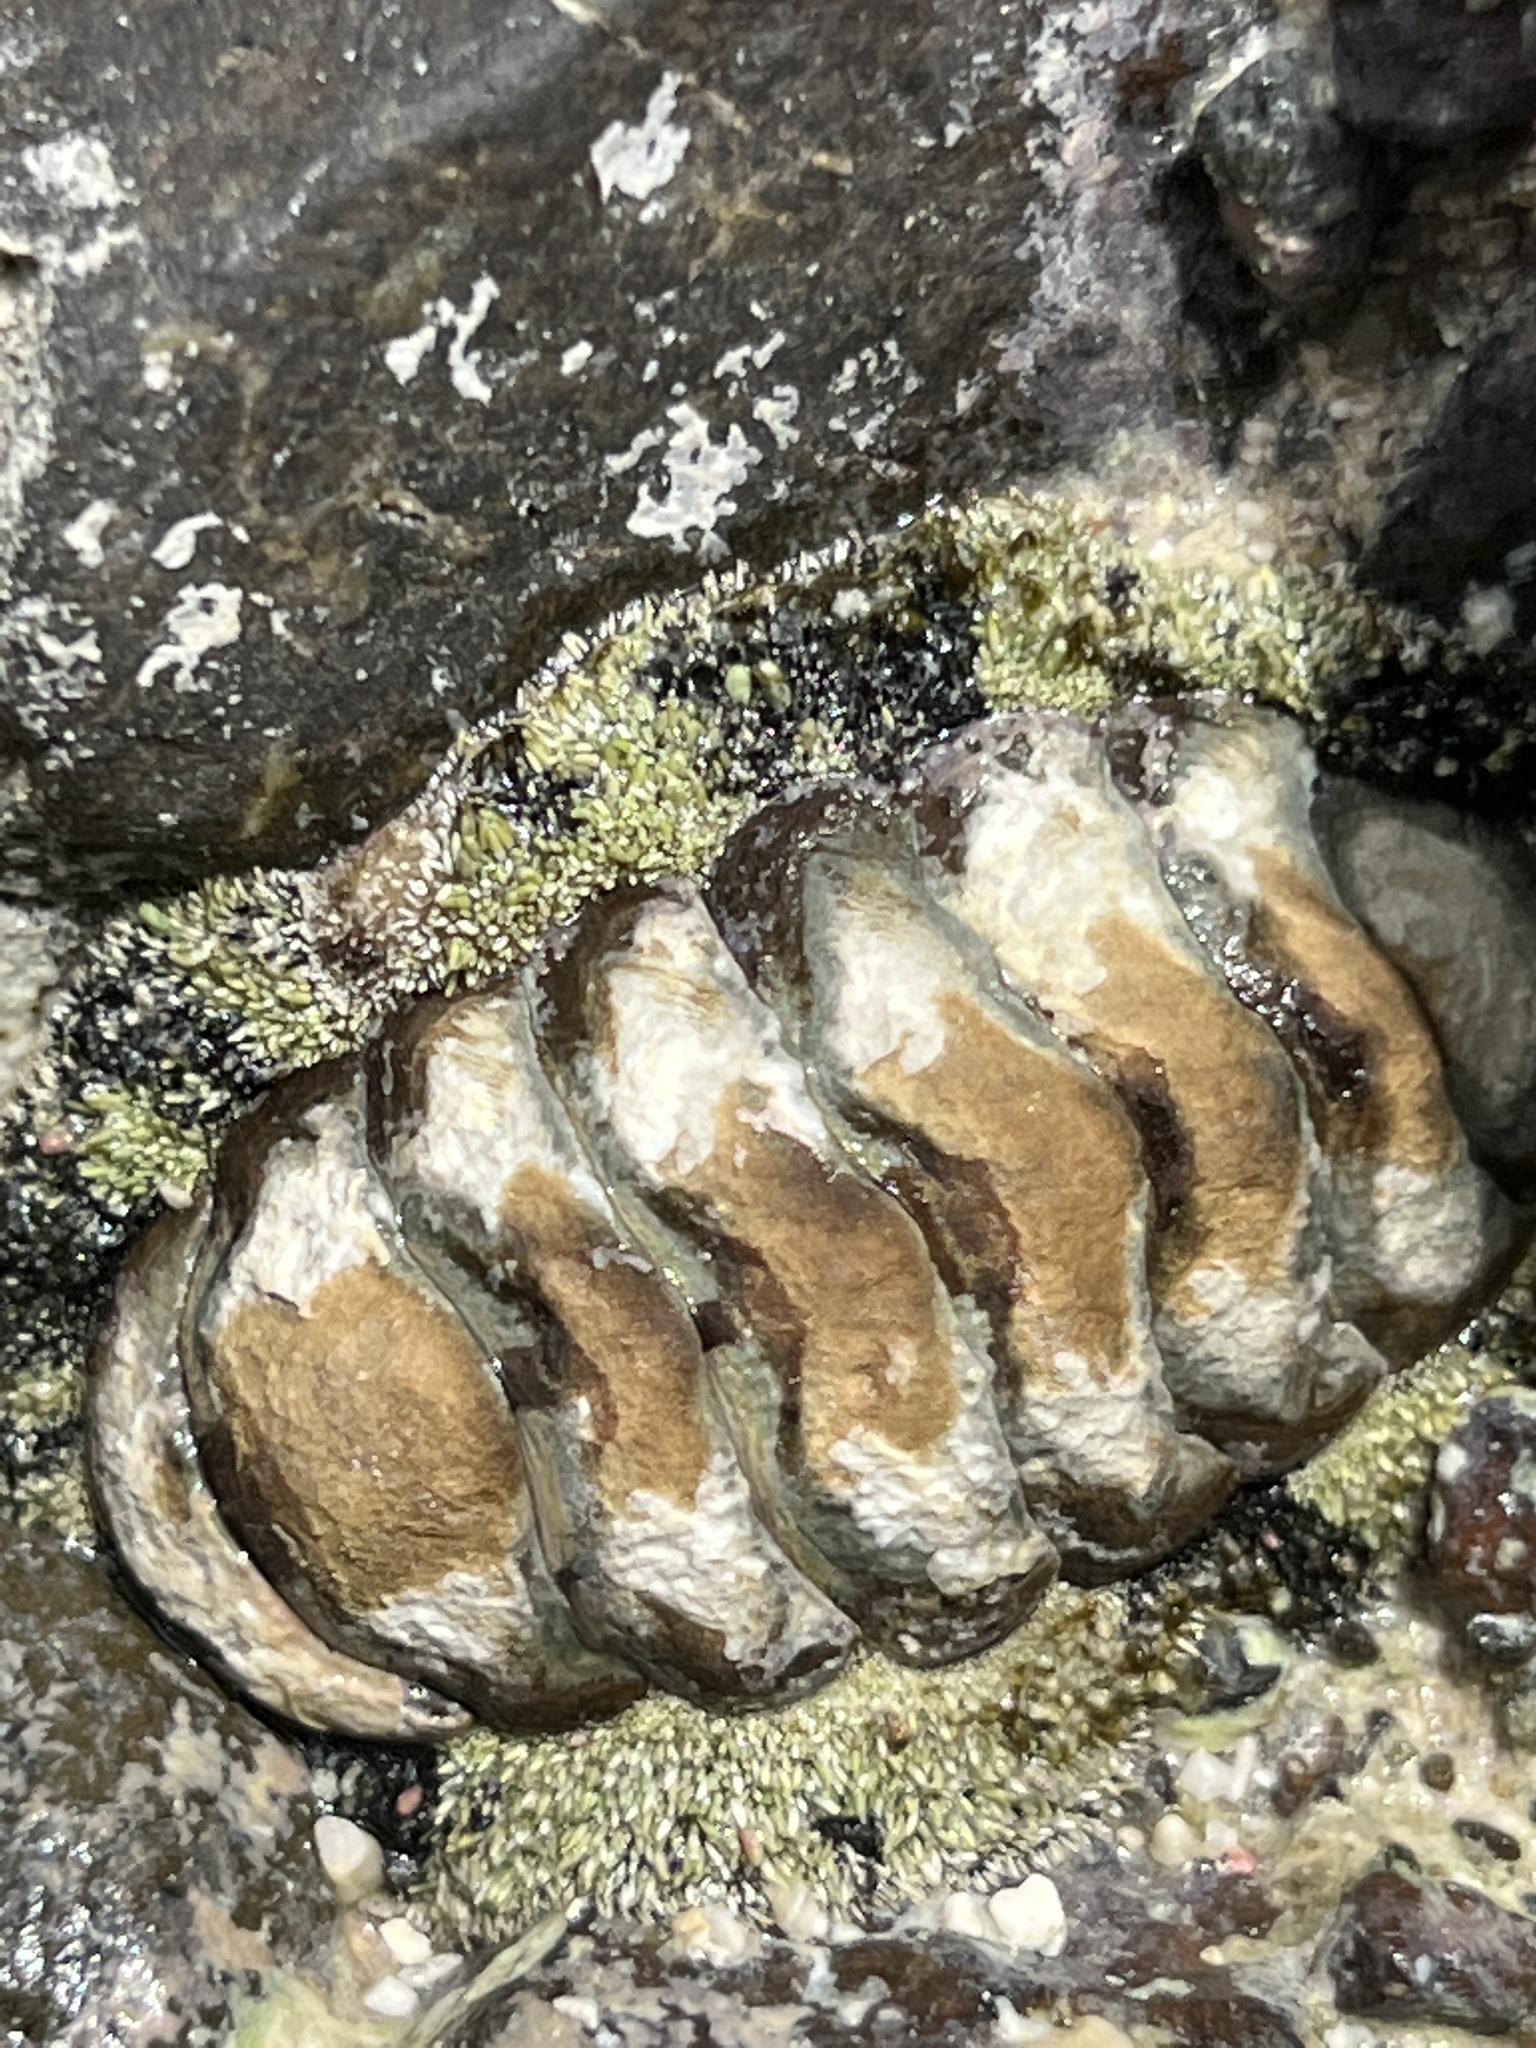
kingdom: Animalia
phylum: Mollusca
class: Polyplacophora
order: Chitonida
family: Chitonidae
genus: Acanthopleura
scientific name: Acanthopleura granulata
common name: West indian fuzzy chiton
